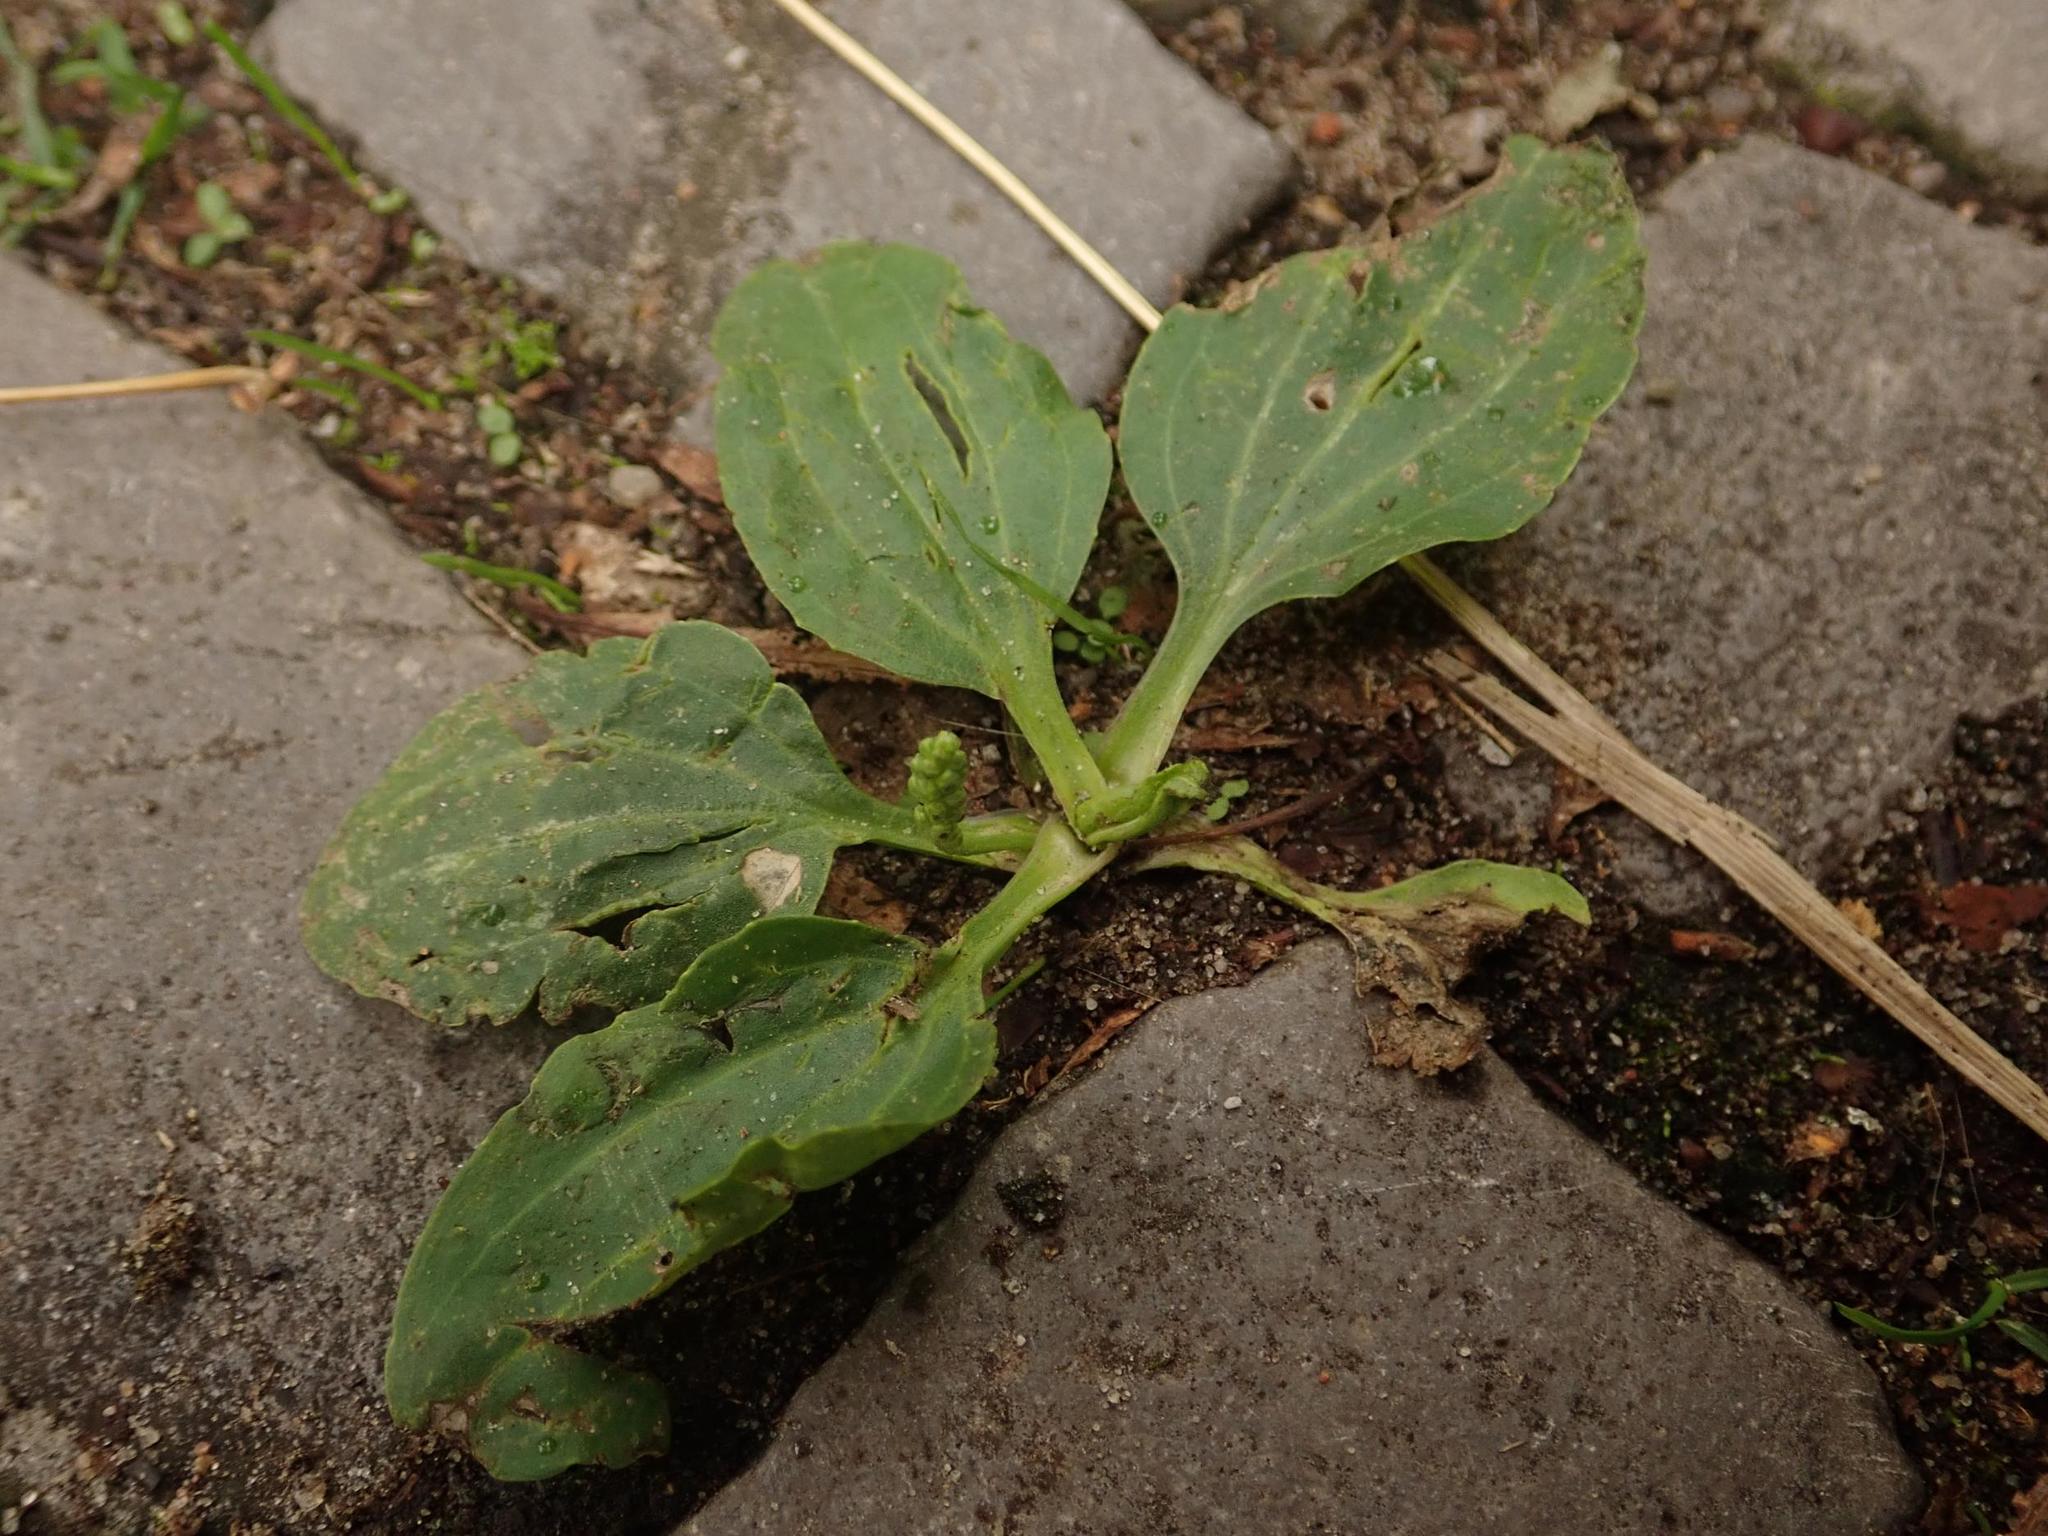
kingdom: Plantae
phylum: Tracheophyta
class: Magnoliopsida
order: Lamiales
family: Plantaginaceae
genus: Plantago
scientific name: Plantago major
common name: Common plantain
